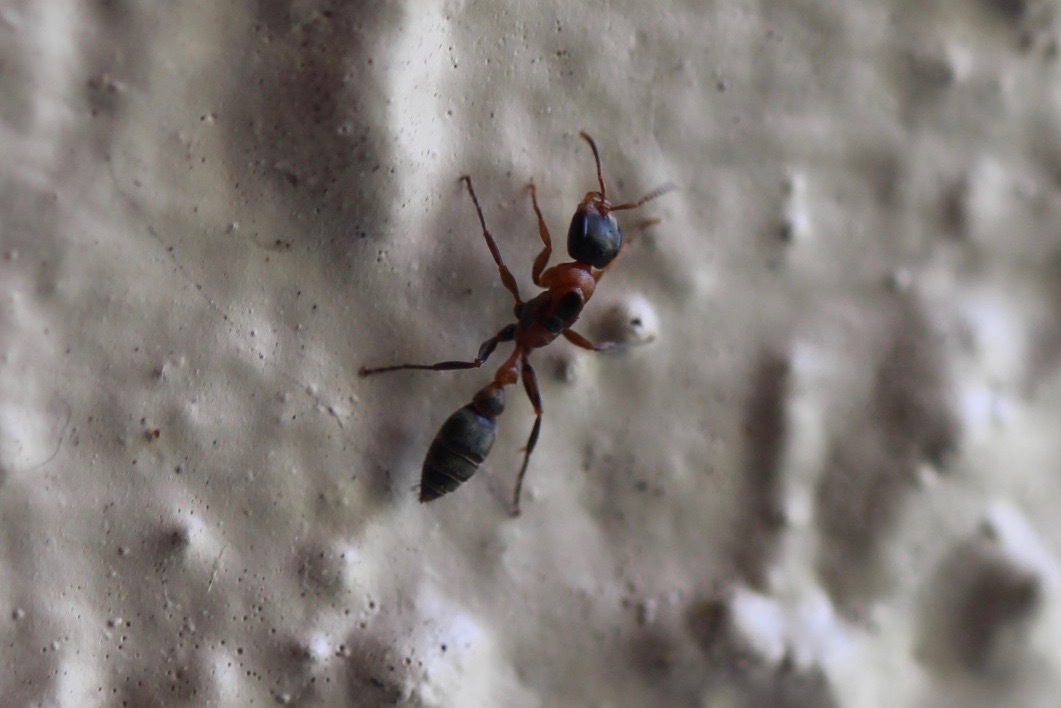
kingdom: Animalia
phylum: Arthropoda
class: Insecta
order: Hymenoptera
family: Formicidae
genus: Pseudomyrmex
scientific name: Pseudomyrmex gracilis
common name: Graceful twig ant
